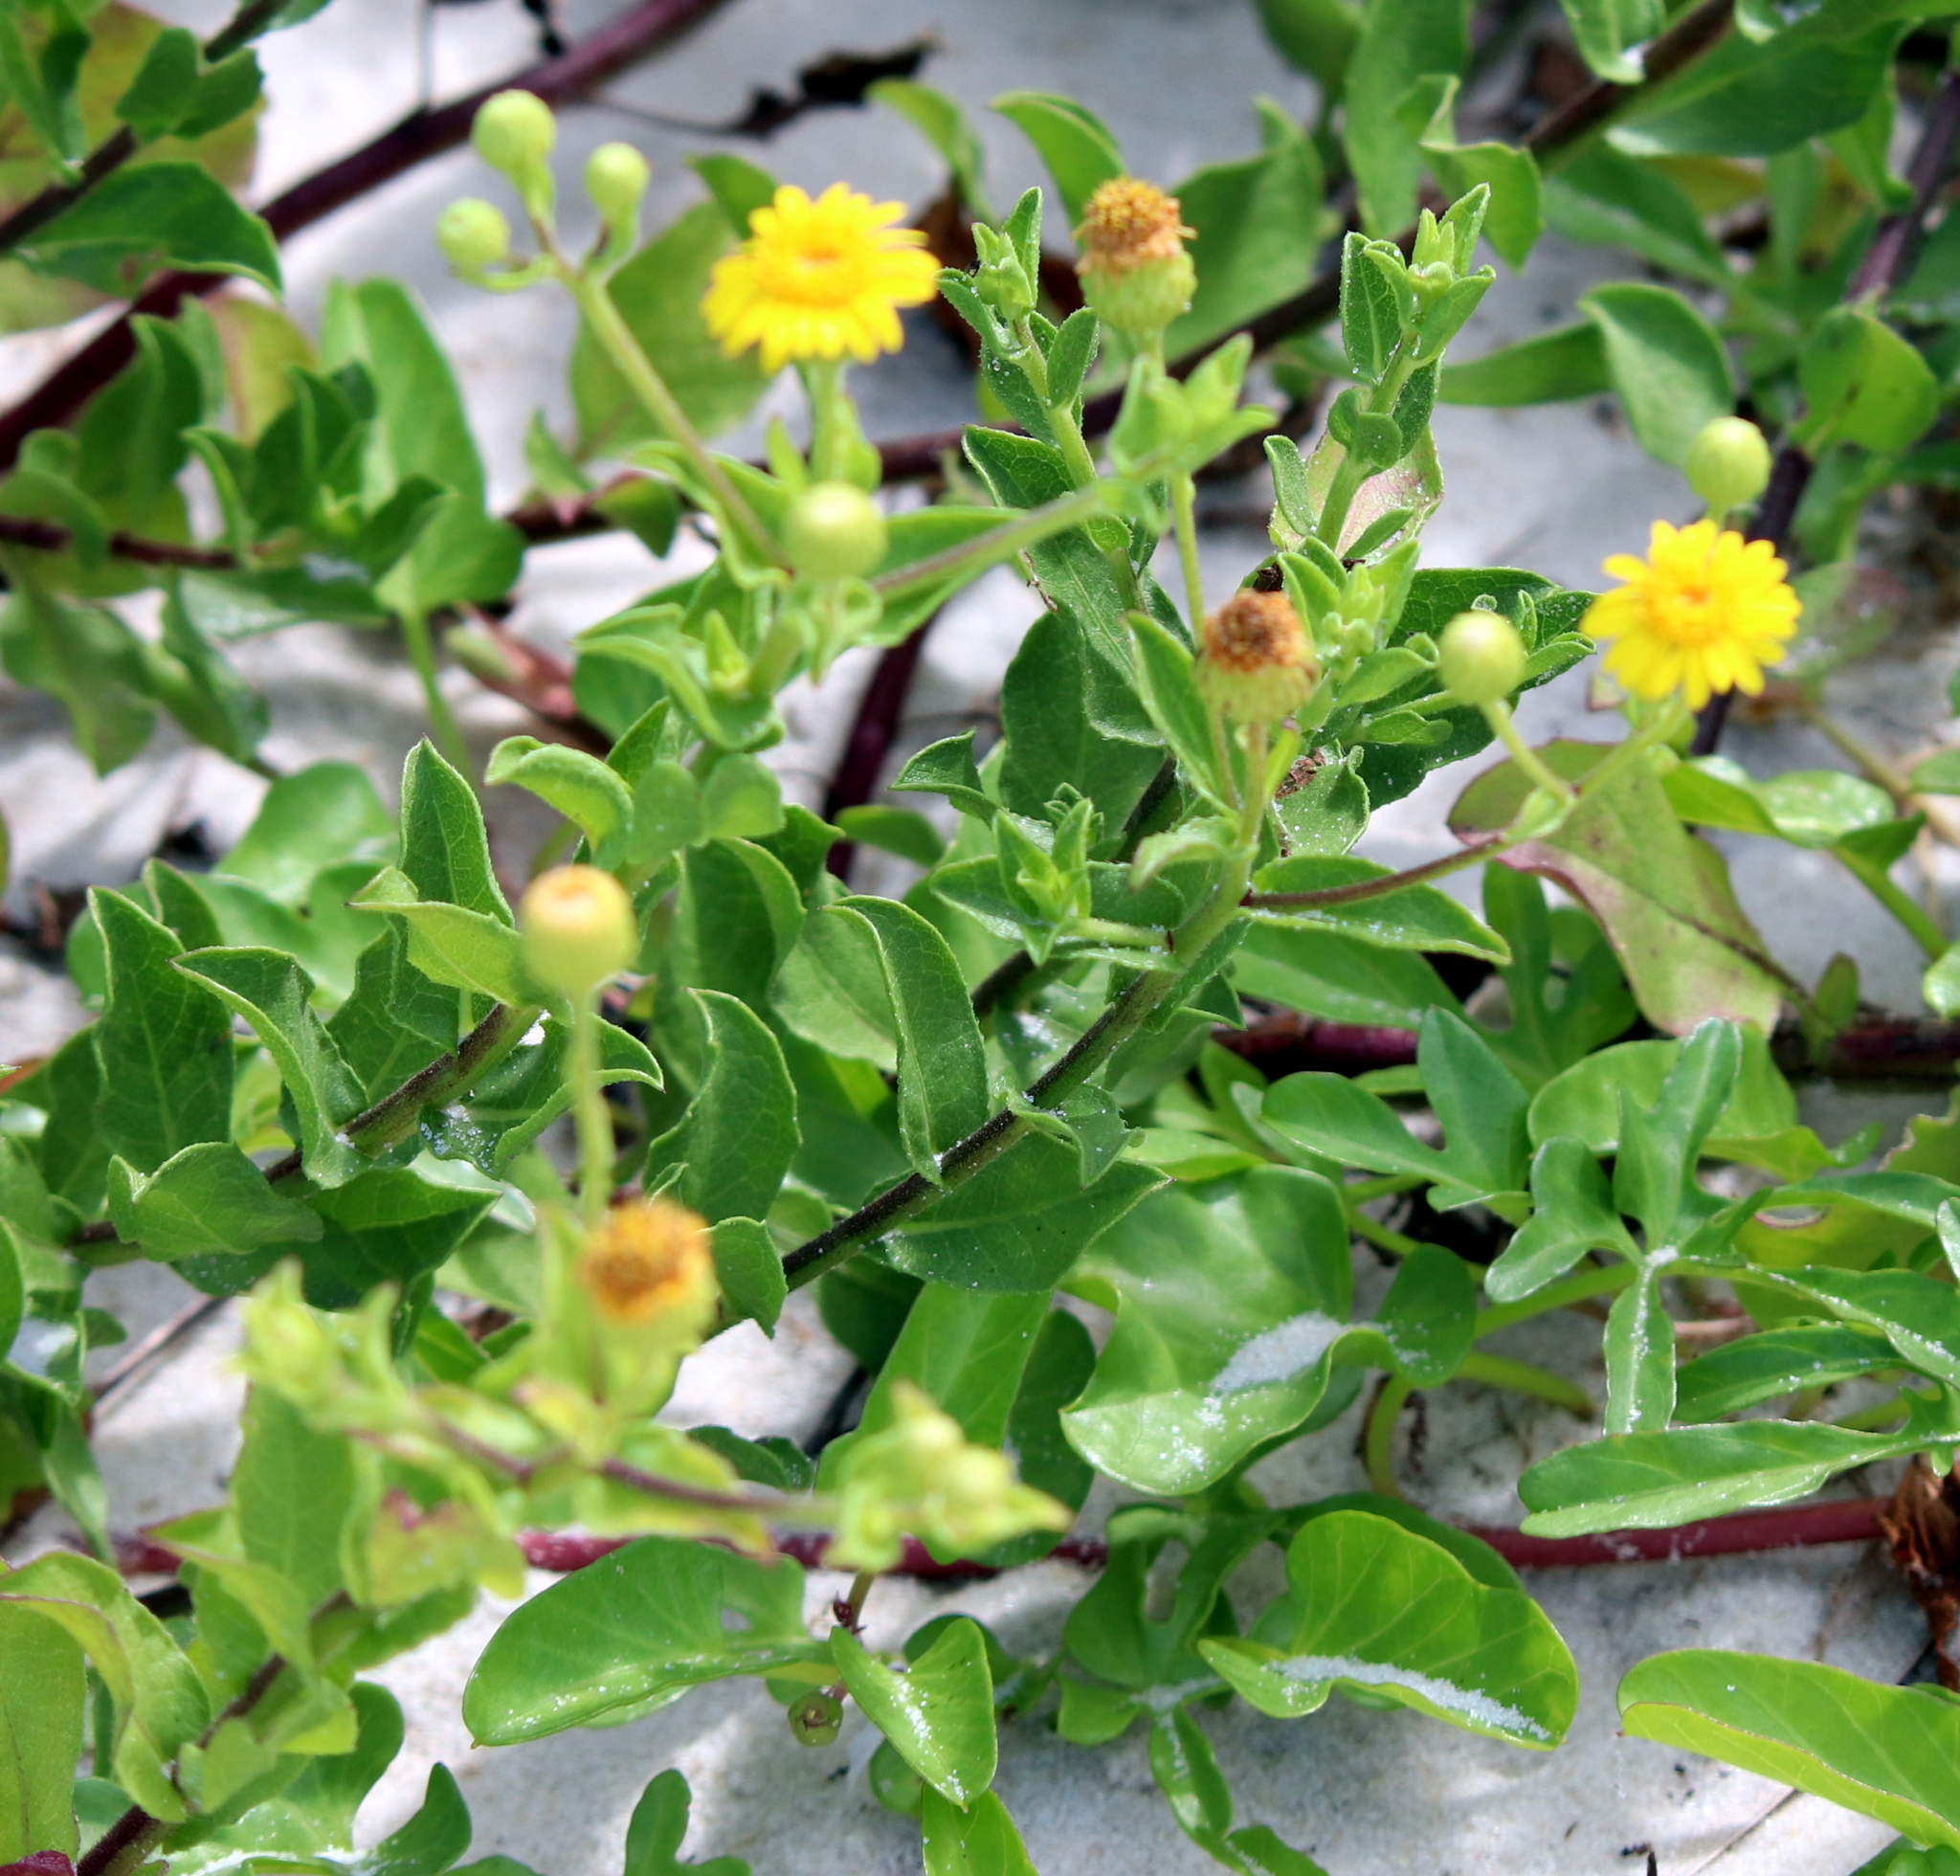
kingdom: Plantae
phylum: Tracheophyta
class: Magnoliopsida
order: Asterales
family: Asteraceae
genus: Heterotheca
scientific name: Heterotheca subaxillaris
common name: Camphorweed
